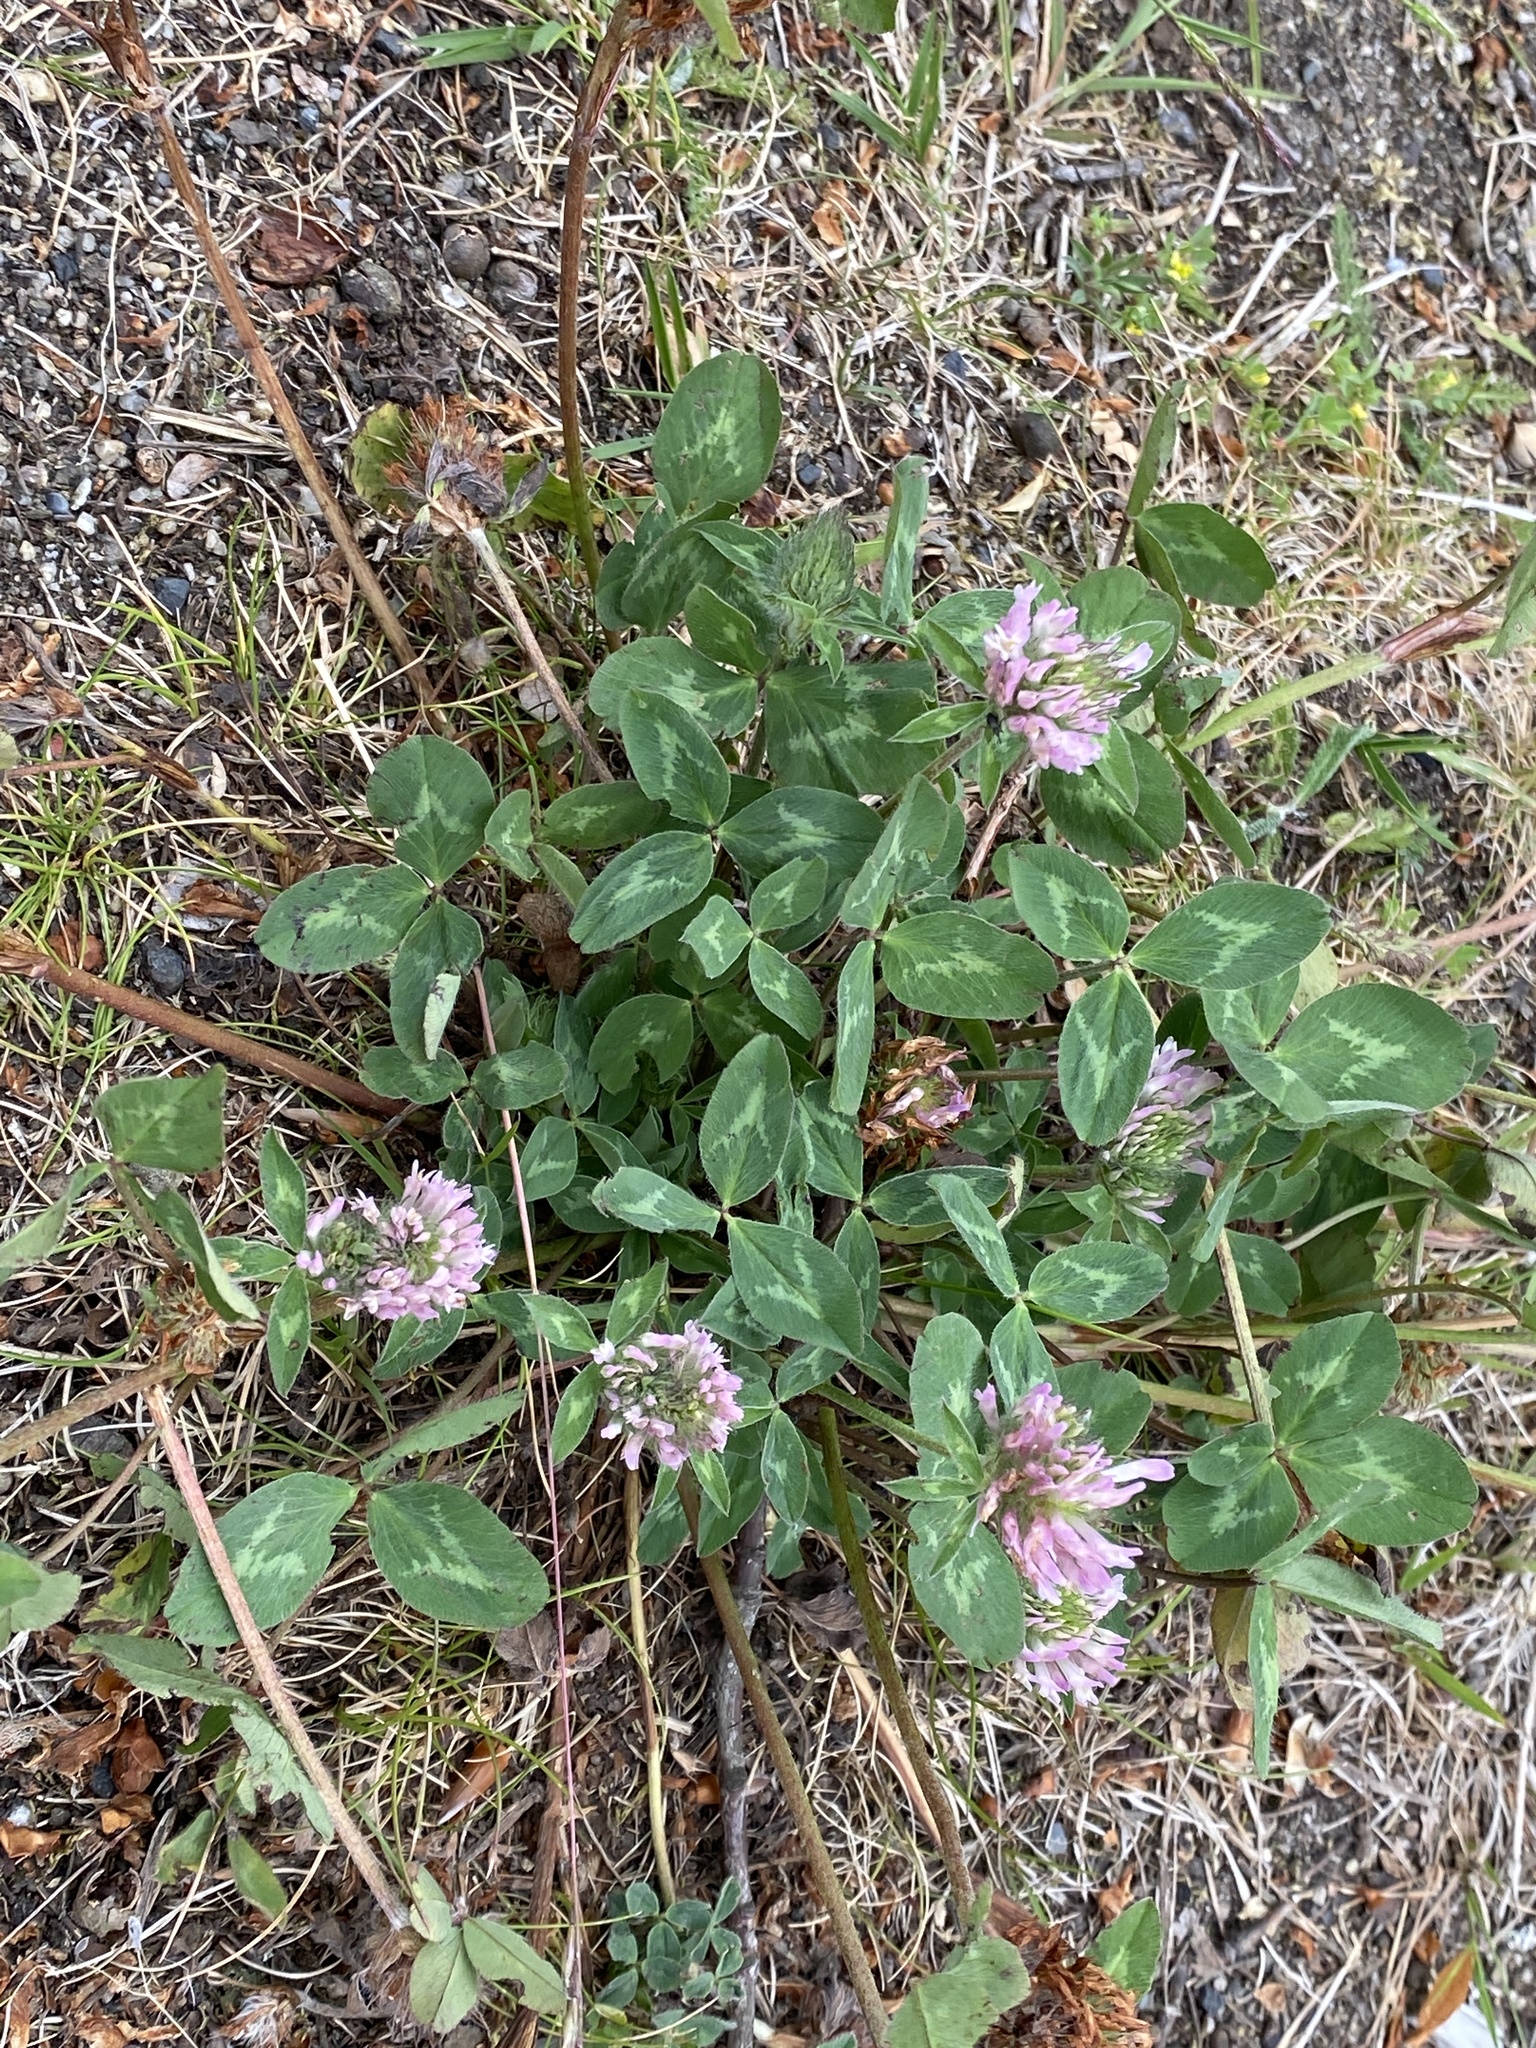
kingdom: Plantae
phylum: Tracheophyta
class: Magnoliopsida
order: Fabales
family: Fabaceae
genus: Trifolium
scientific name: Trifolium pratense
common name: Red clover
